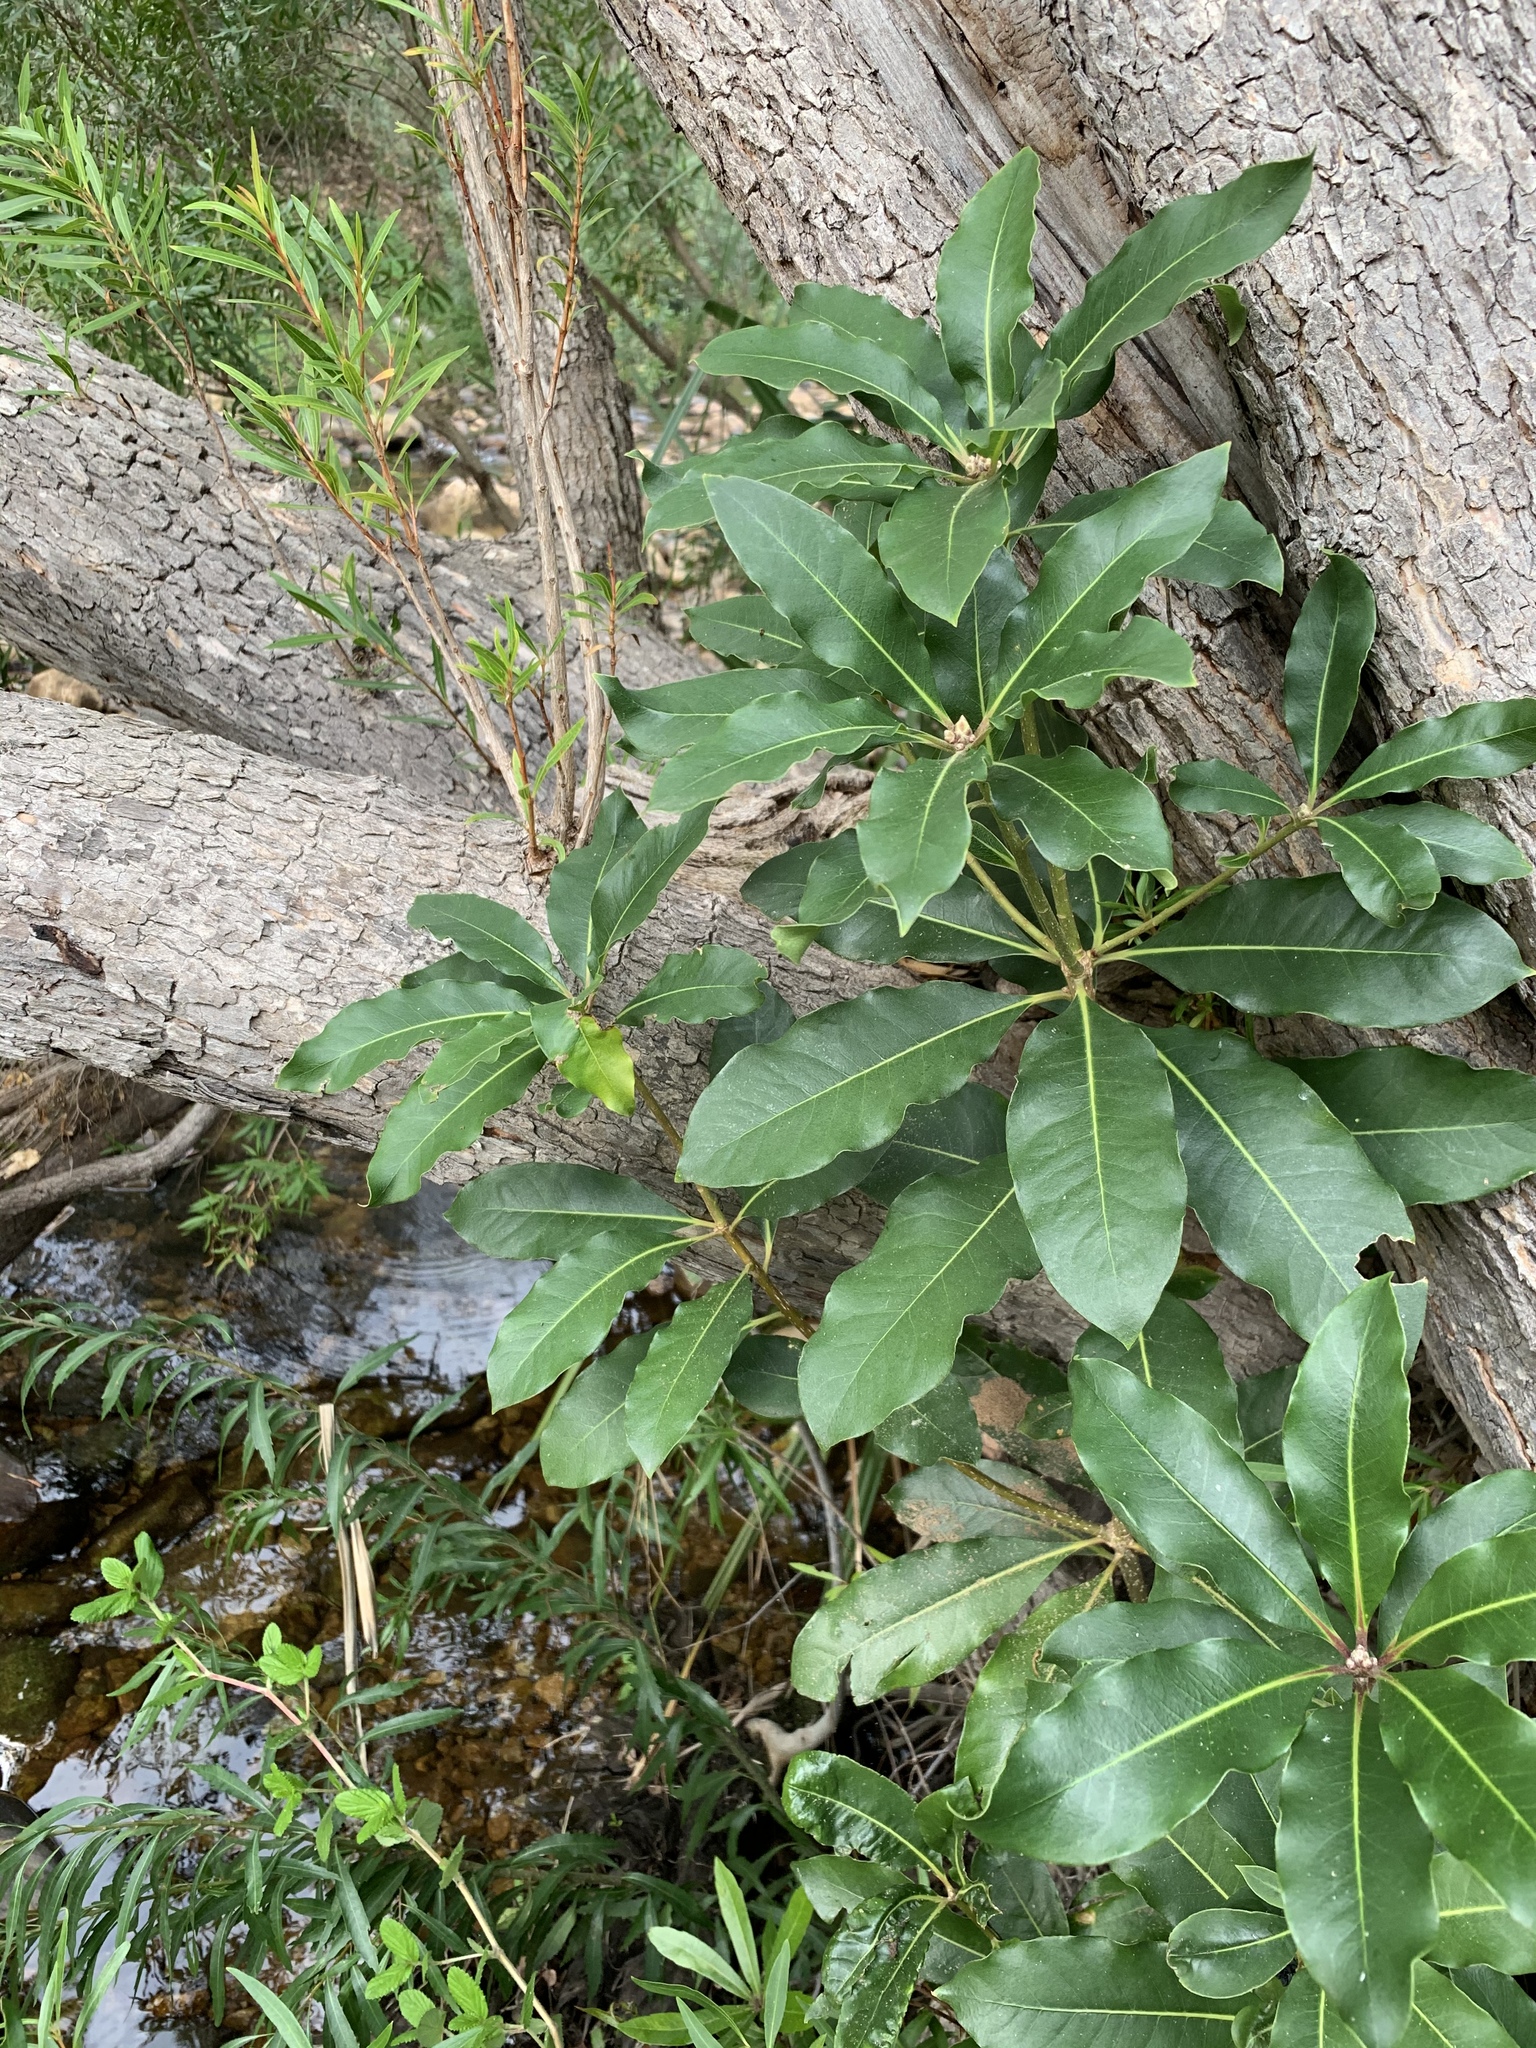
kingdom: Plantae
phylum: Tracheophyta
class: Magnoliopsida
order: Apiales
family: Pittosporaceae
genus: Pittosporum
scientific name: Pittosporum undulatum
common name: Australian cheesewood
